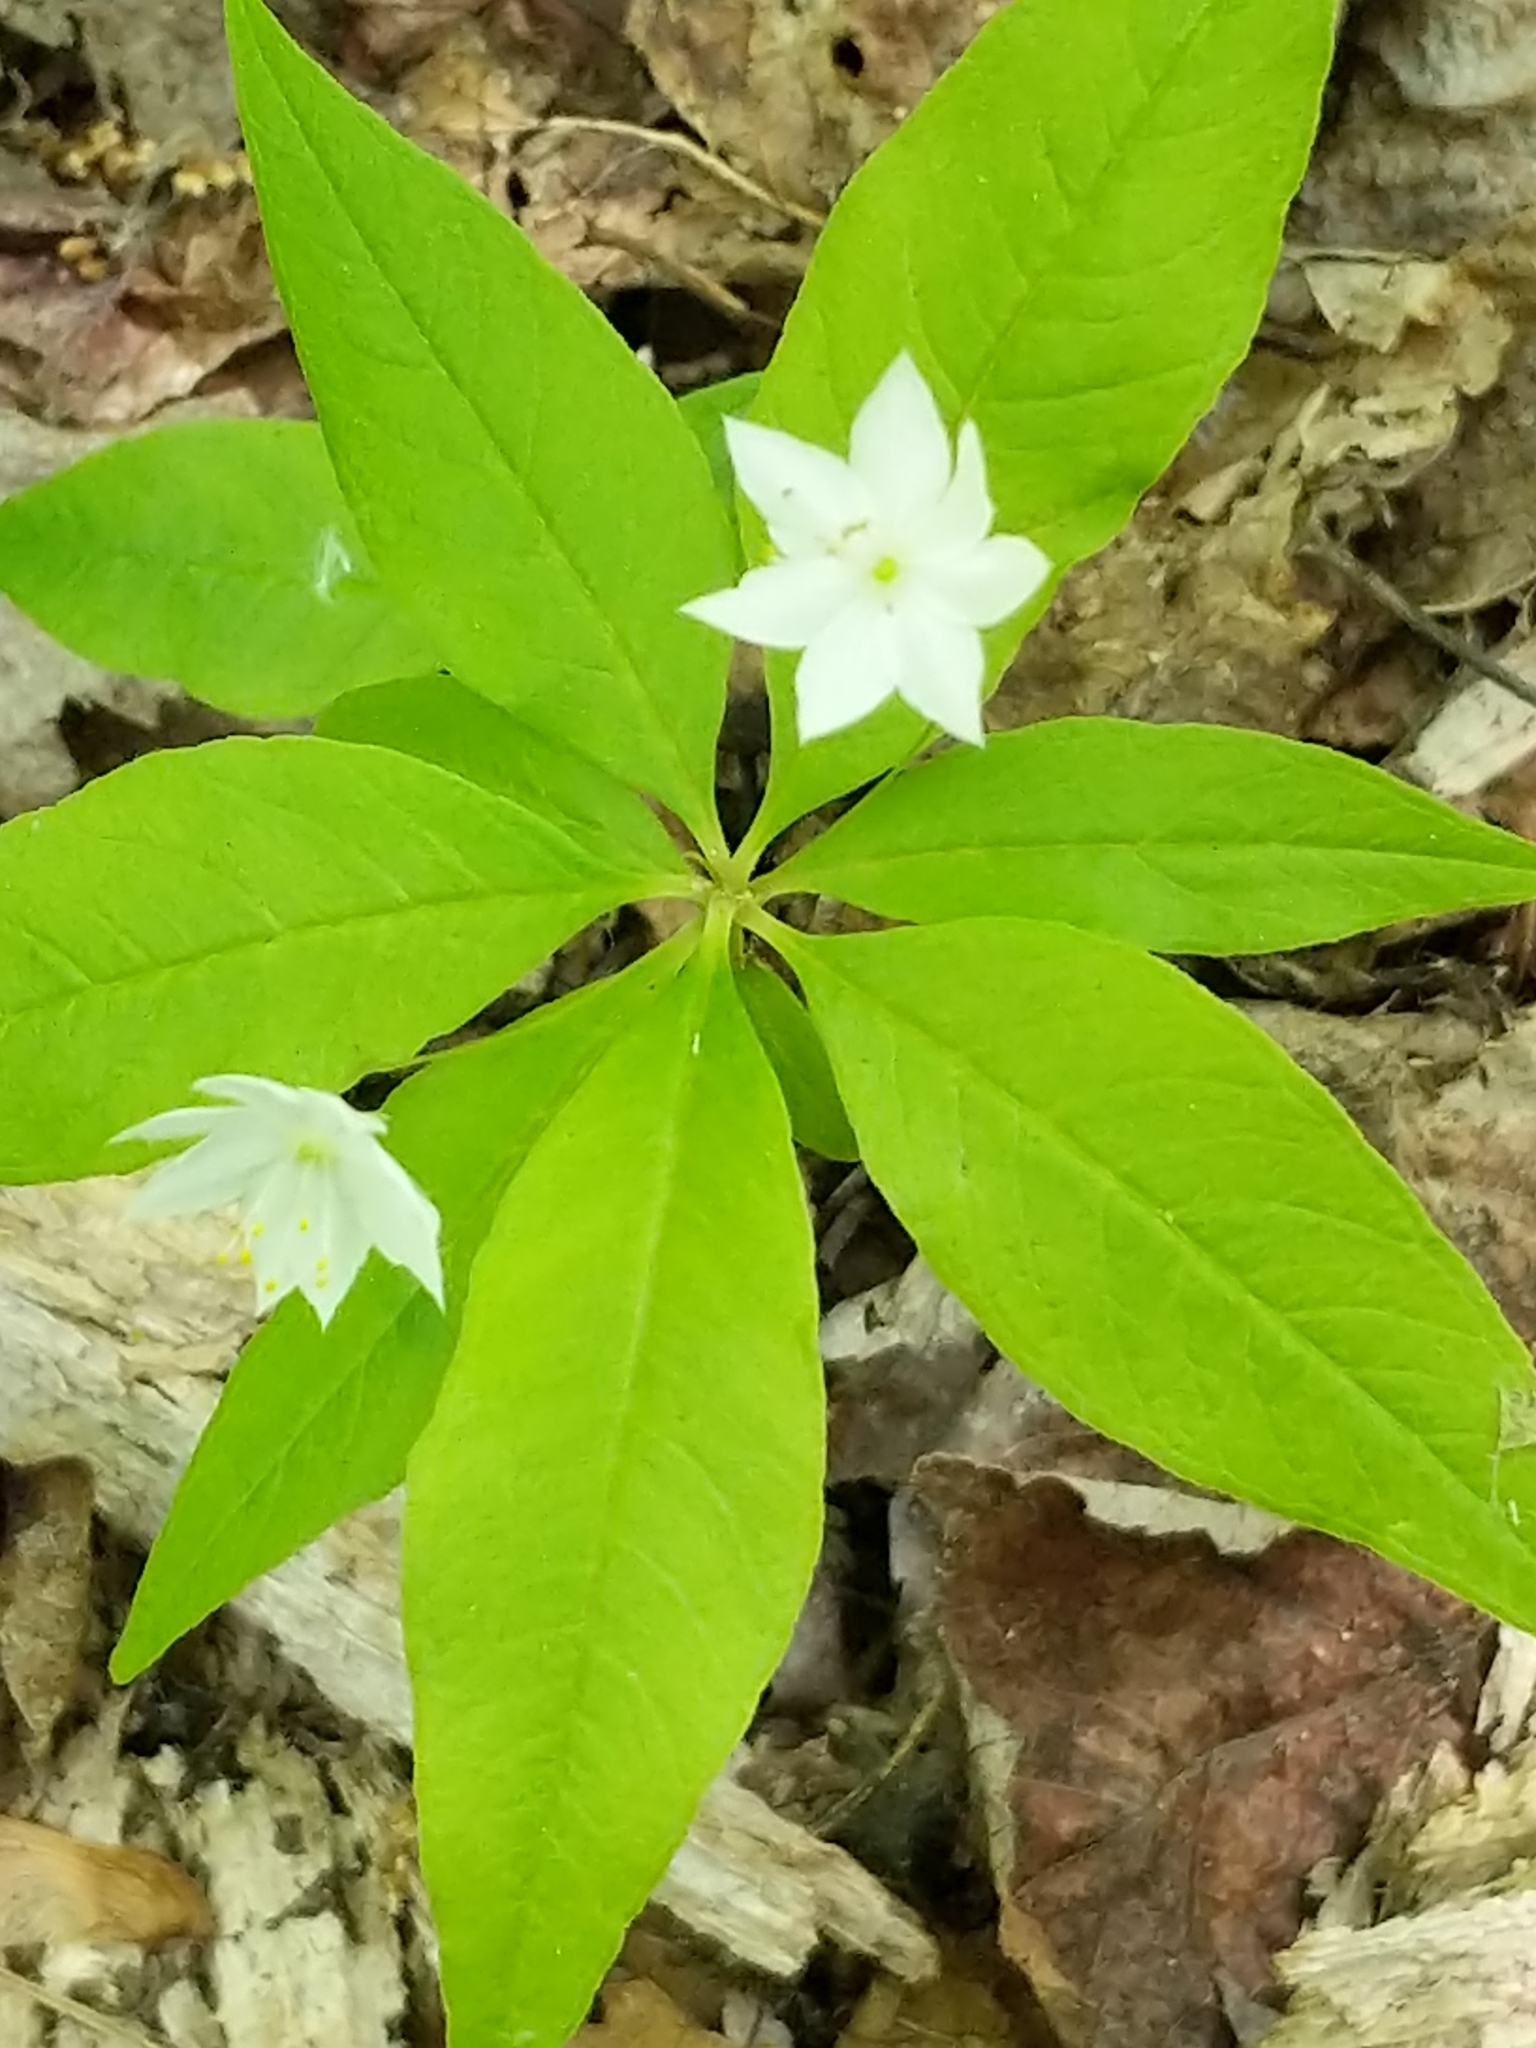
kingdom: Plantae
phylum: Tracheophyta
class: Magnoliopsida
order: Ericales
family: Primulaceae
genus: Lysimachia
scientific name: Lysimachia borealis
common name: American starflower
